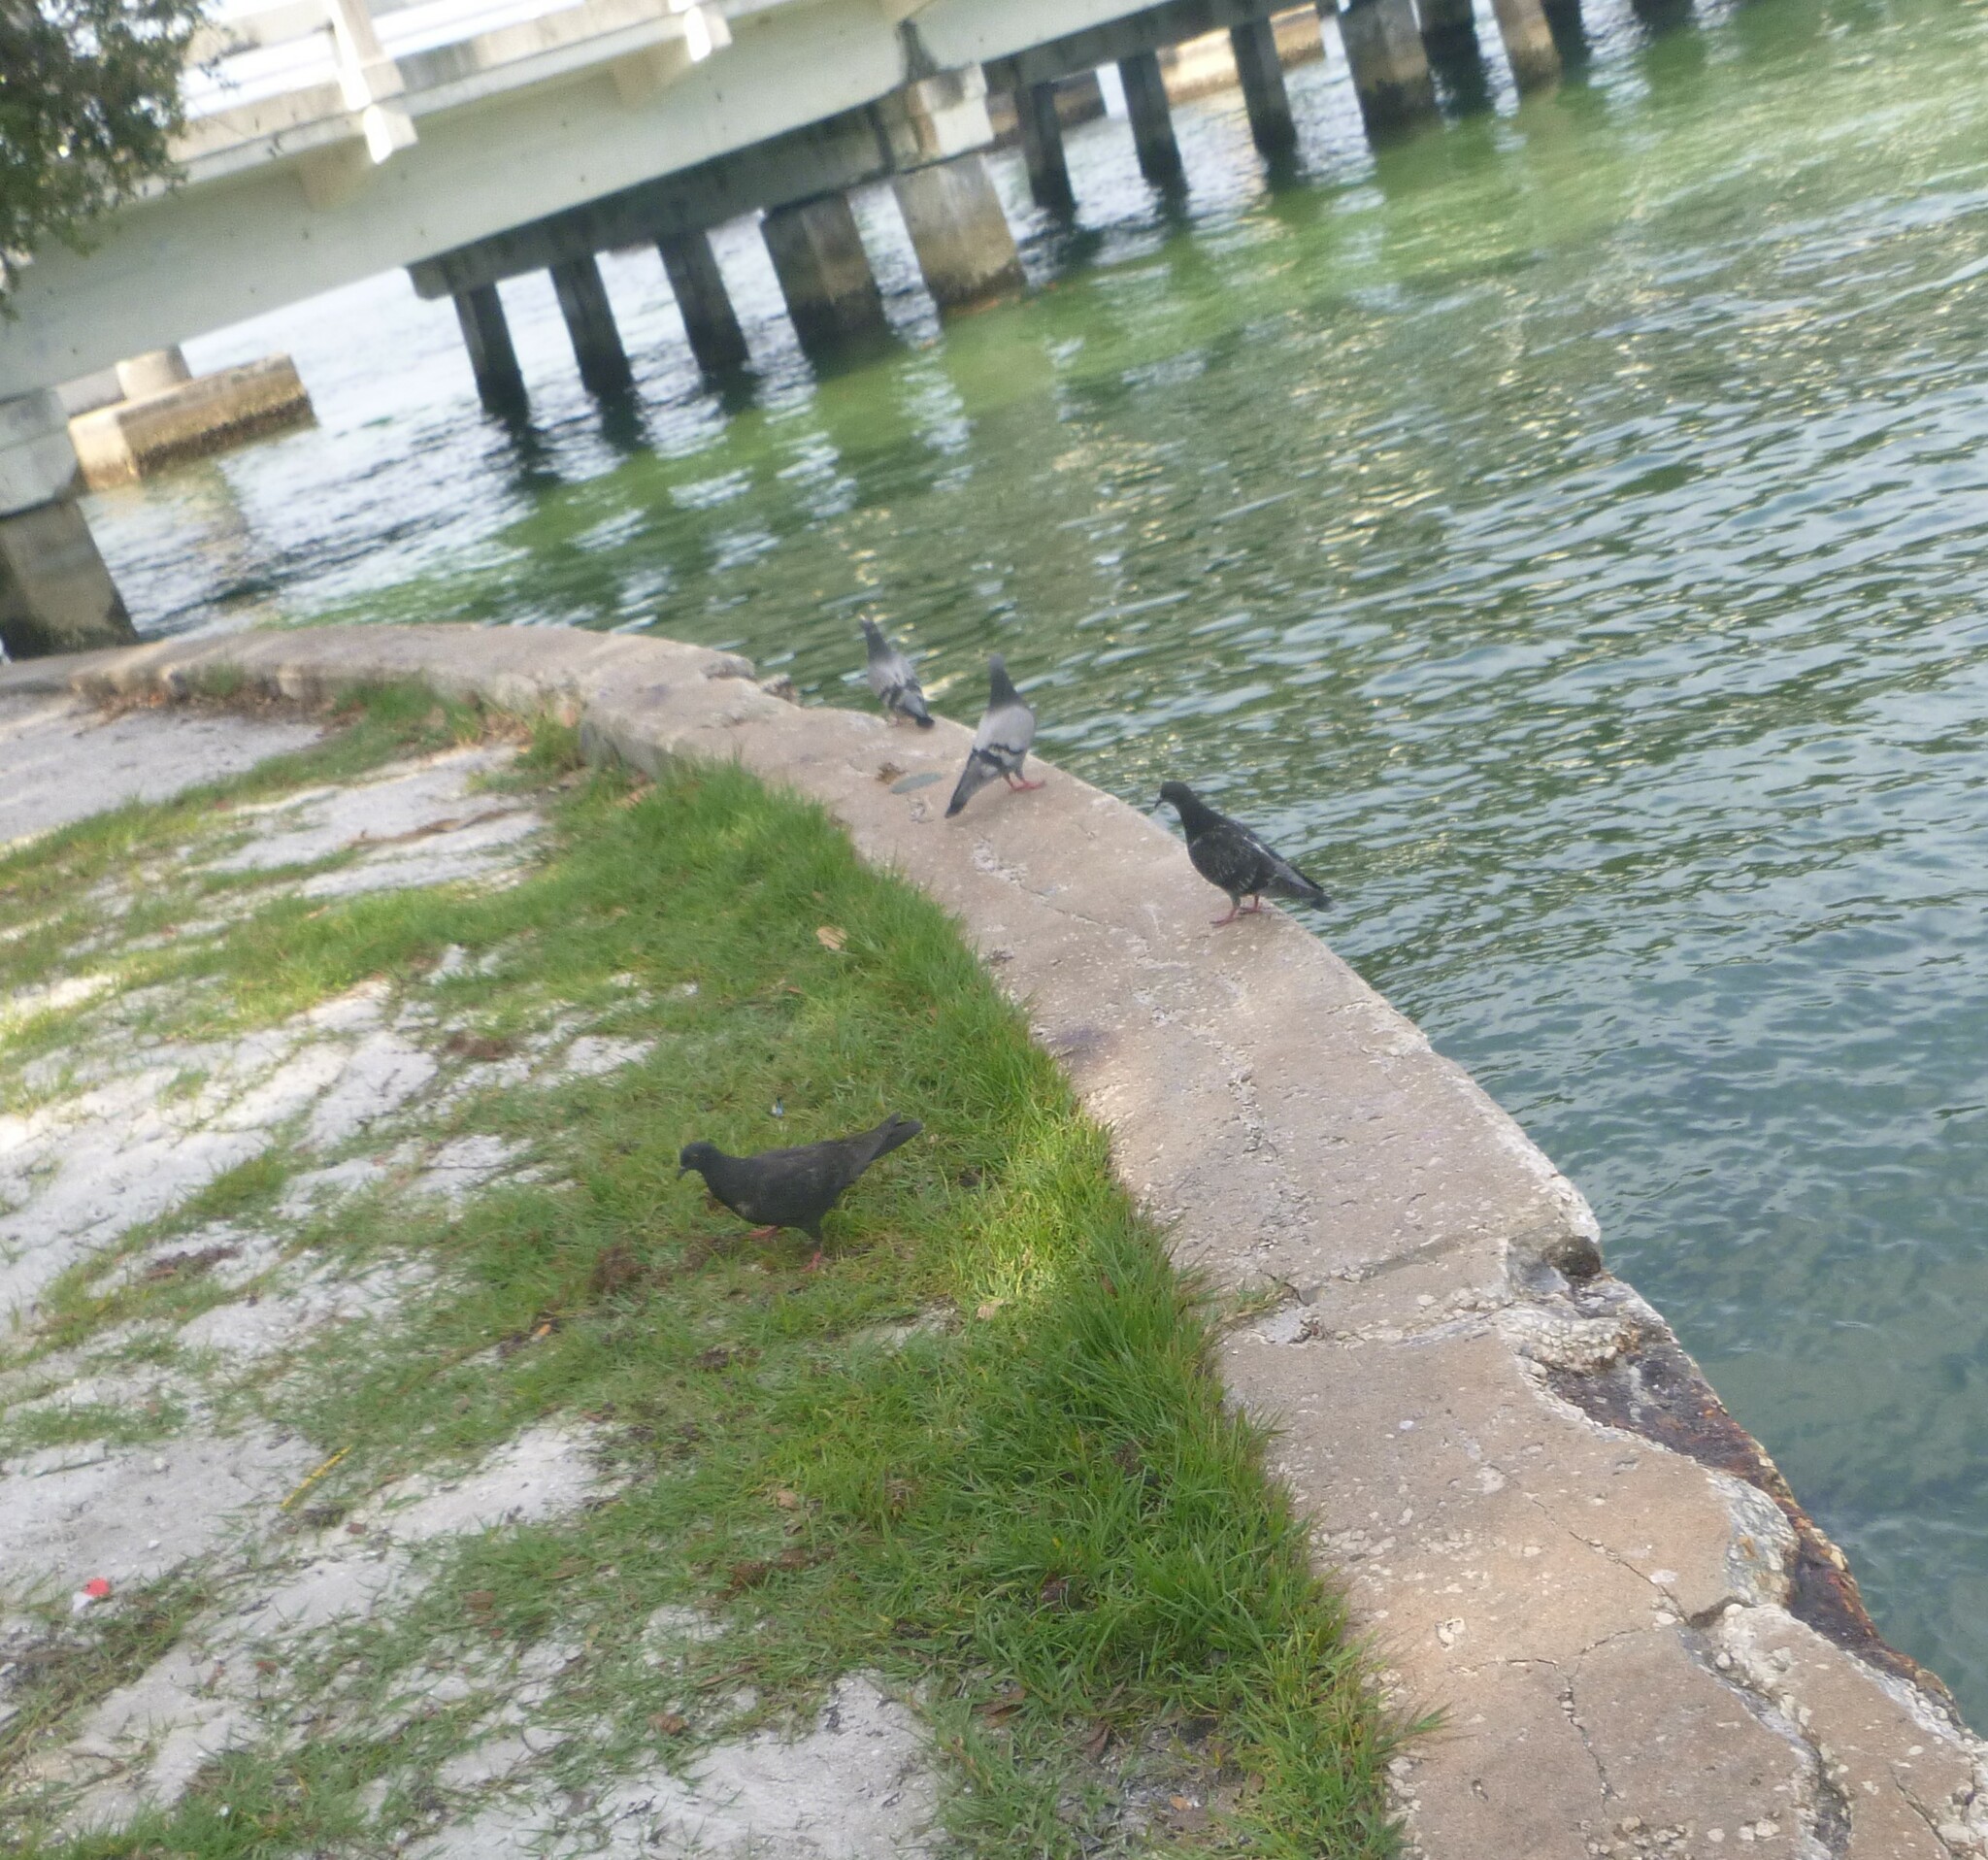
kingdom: Animalia
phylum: Chordata
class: Aves
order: Columbiformes
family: Columbidae
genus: Columba
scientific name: Columba livia
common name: Rock pigeon
